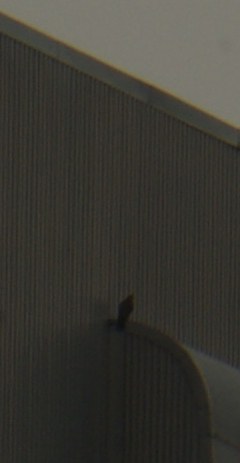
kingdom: Animalia
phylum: Chordata
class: Aves
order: Falconiformes
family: Falconidae
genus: Falco
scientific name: Falco peregrinus
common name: Peregrine falcon
